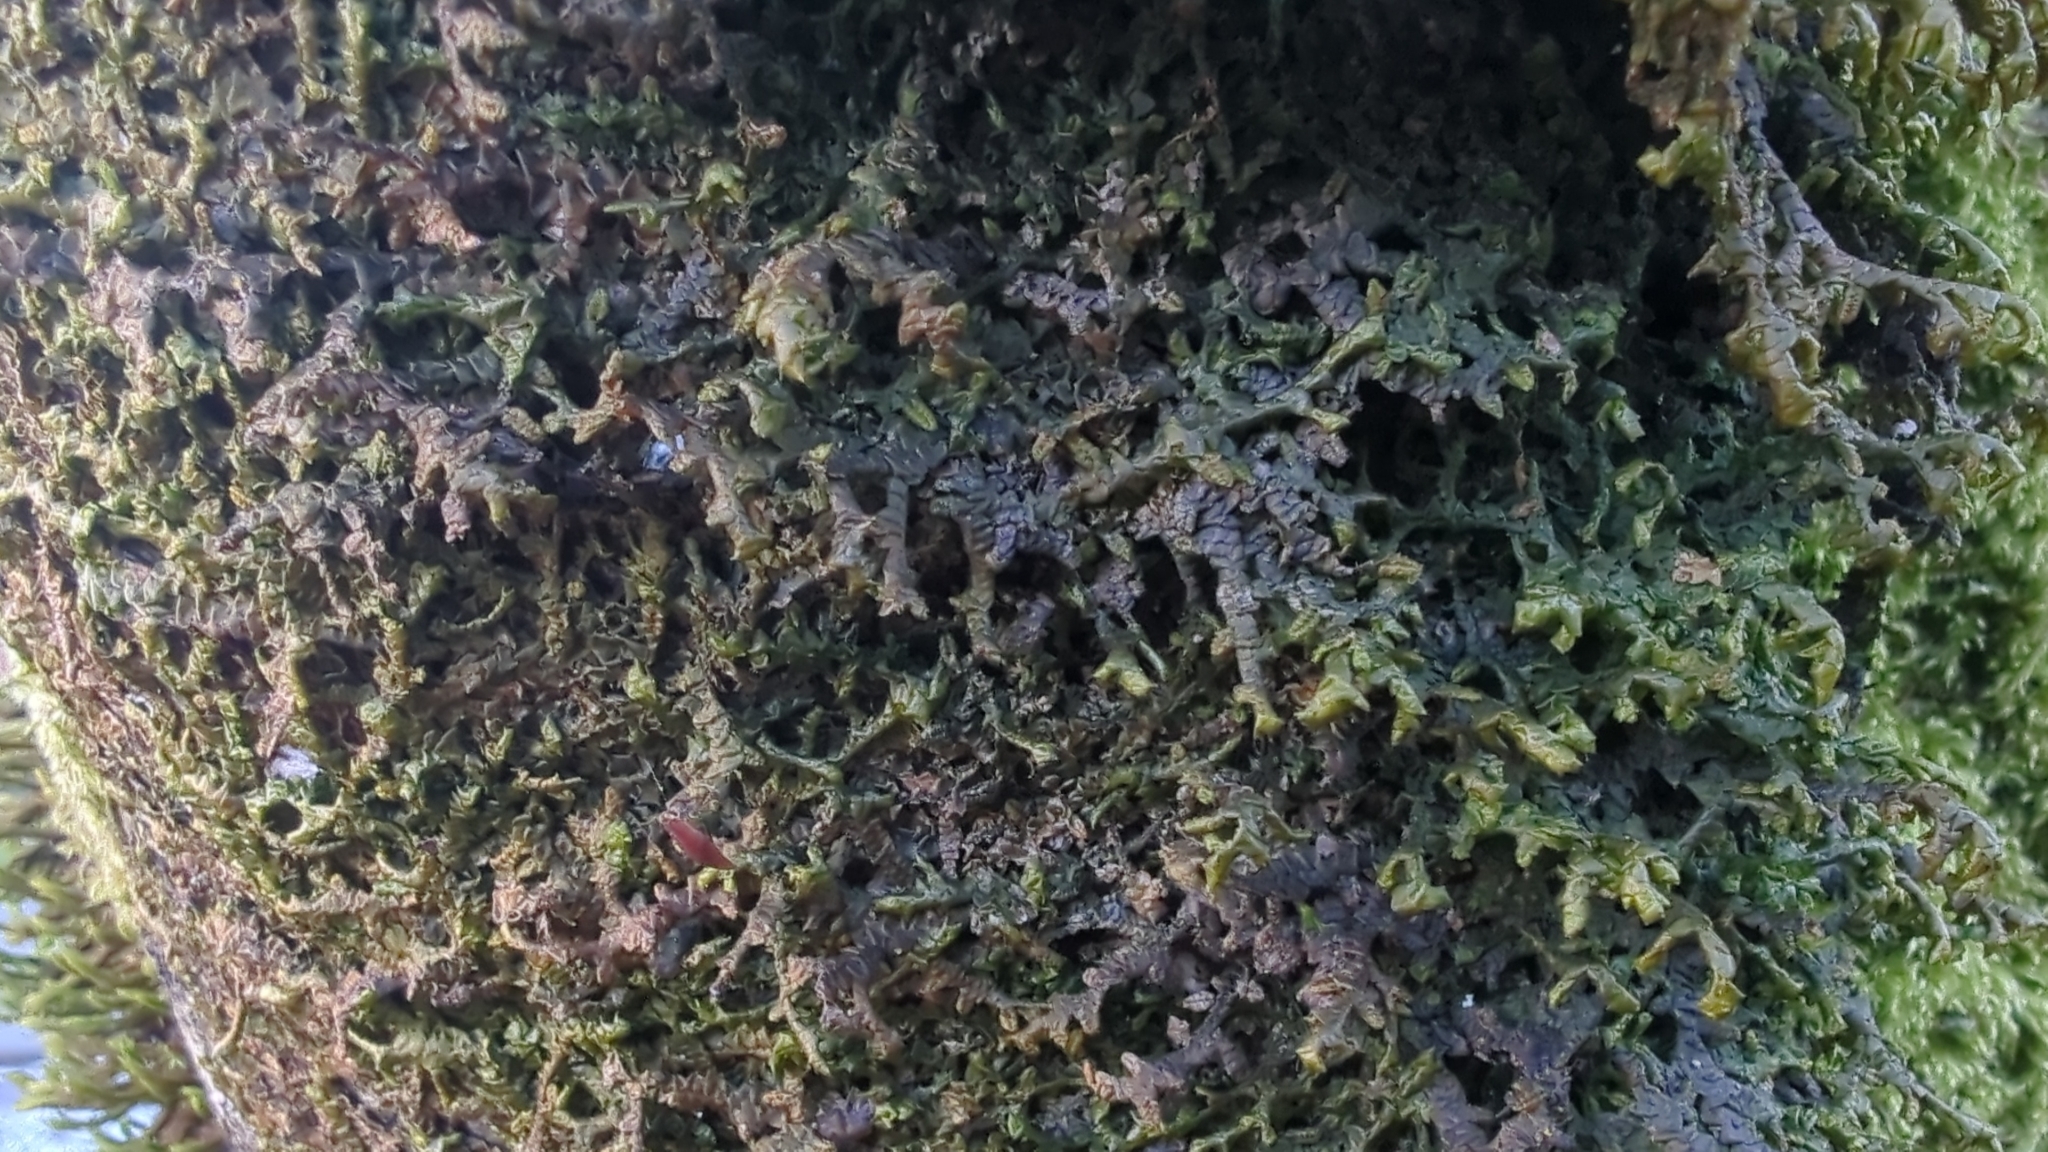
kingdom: Plantae
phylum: Marchantiophyta
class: Jungermanniopsida
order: Porellales
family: Porellaceae
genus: Porella
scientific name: Porella navicularis
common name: Tree ruffle liverwort
